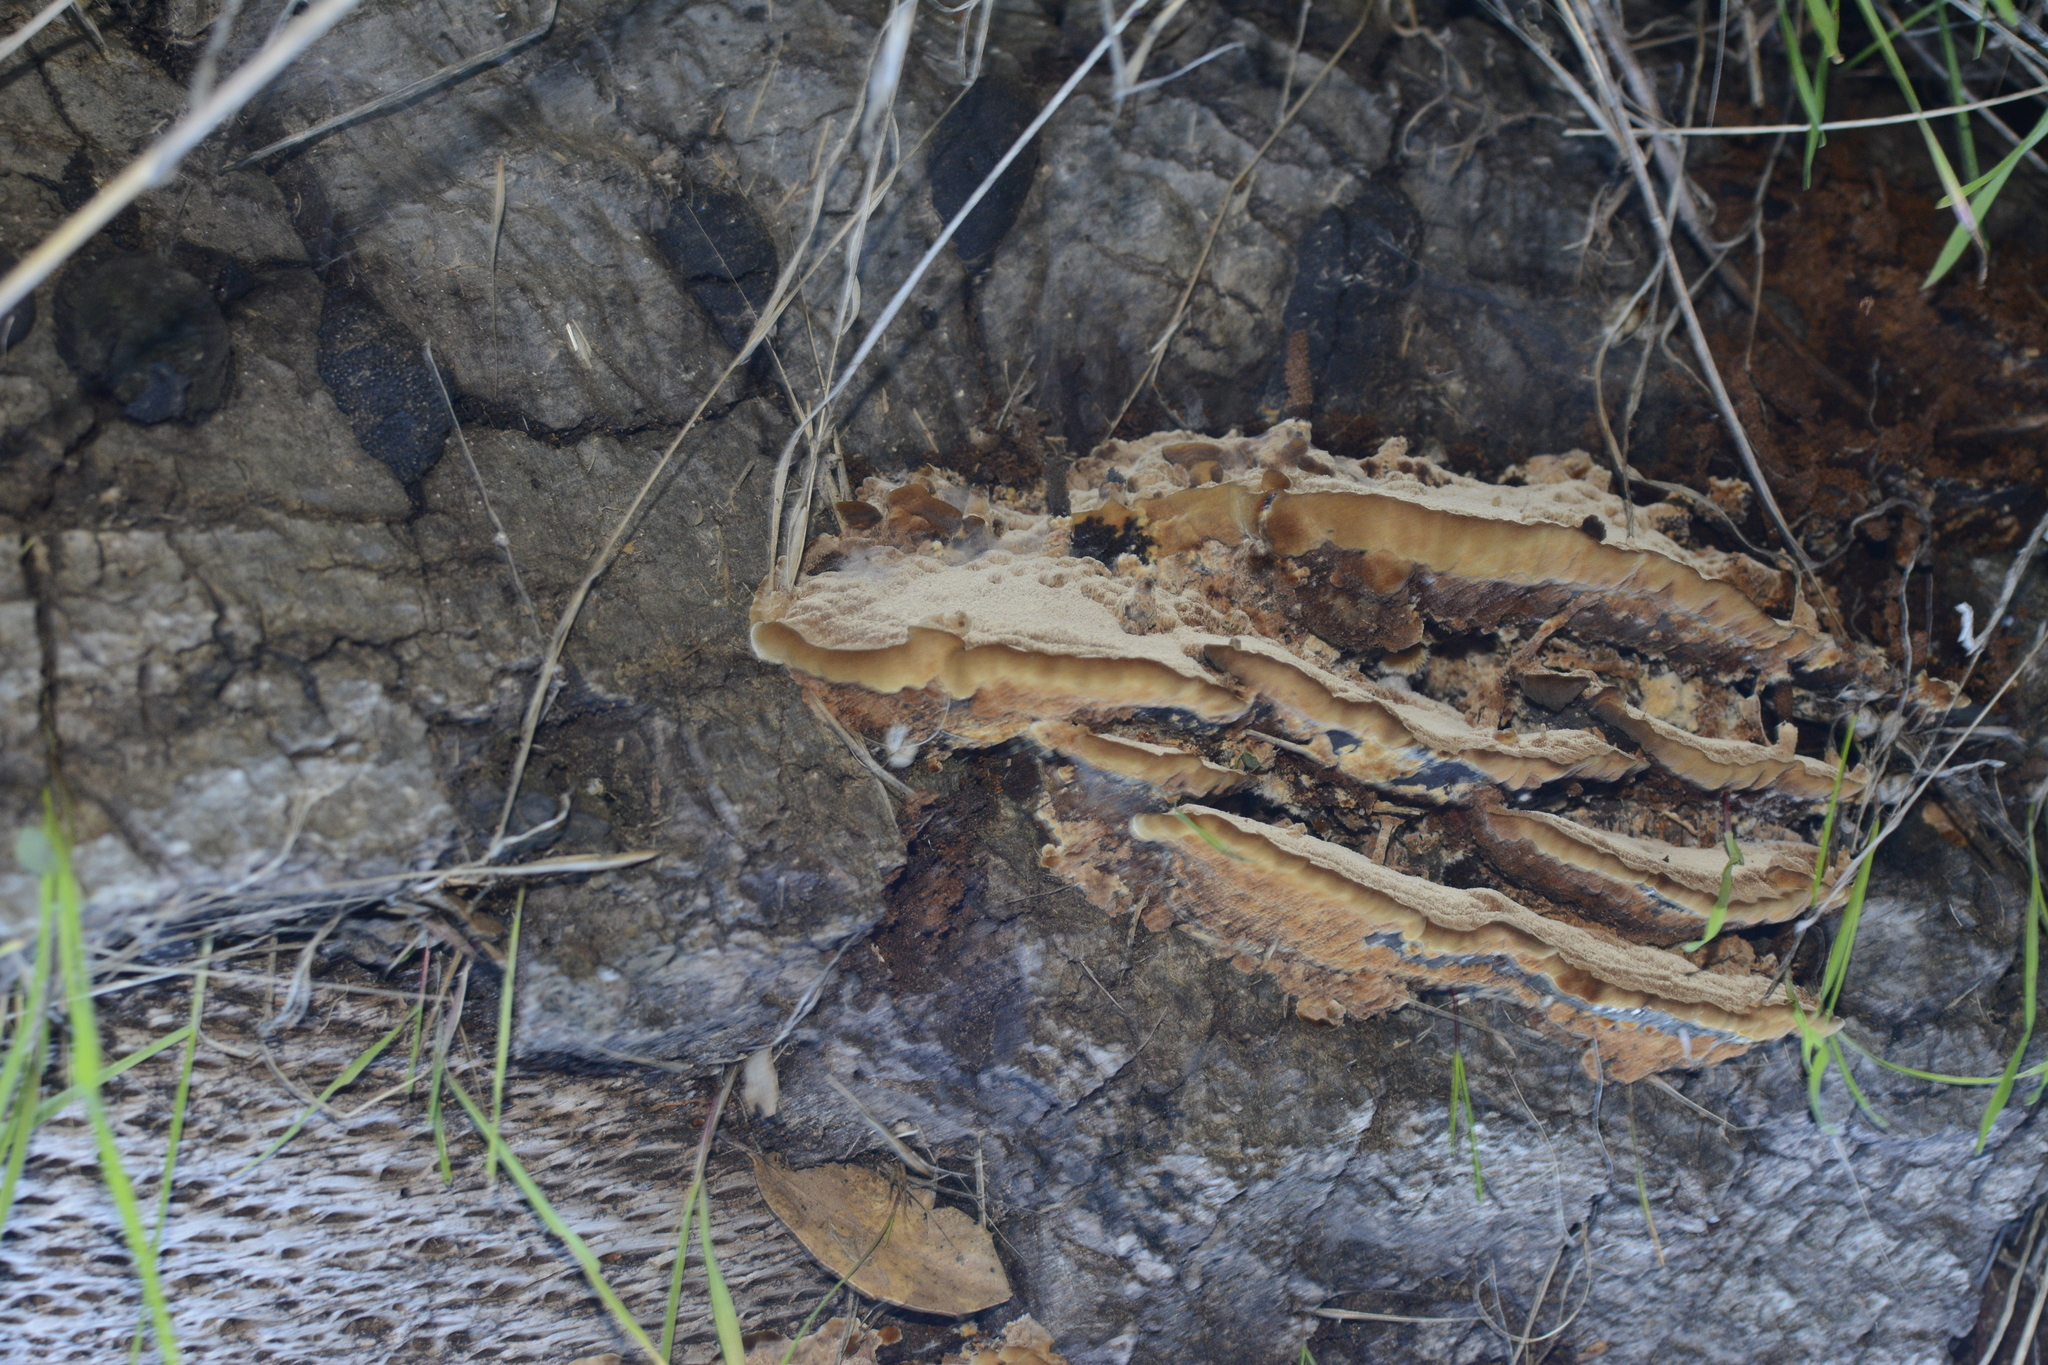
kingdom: Fungi
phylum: Basidiomycota
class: Agaricomycetes
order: Hymenochaetales
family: Hymenochaetaceae
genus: Phellinus
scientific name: Phellinus gilvus
